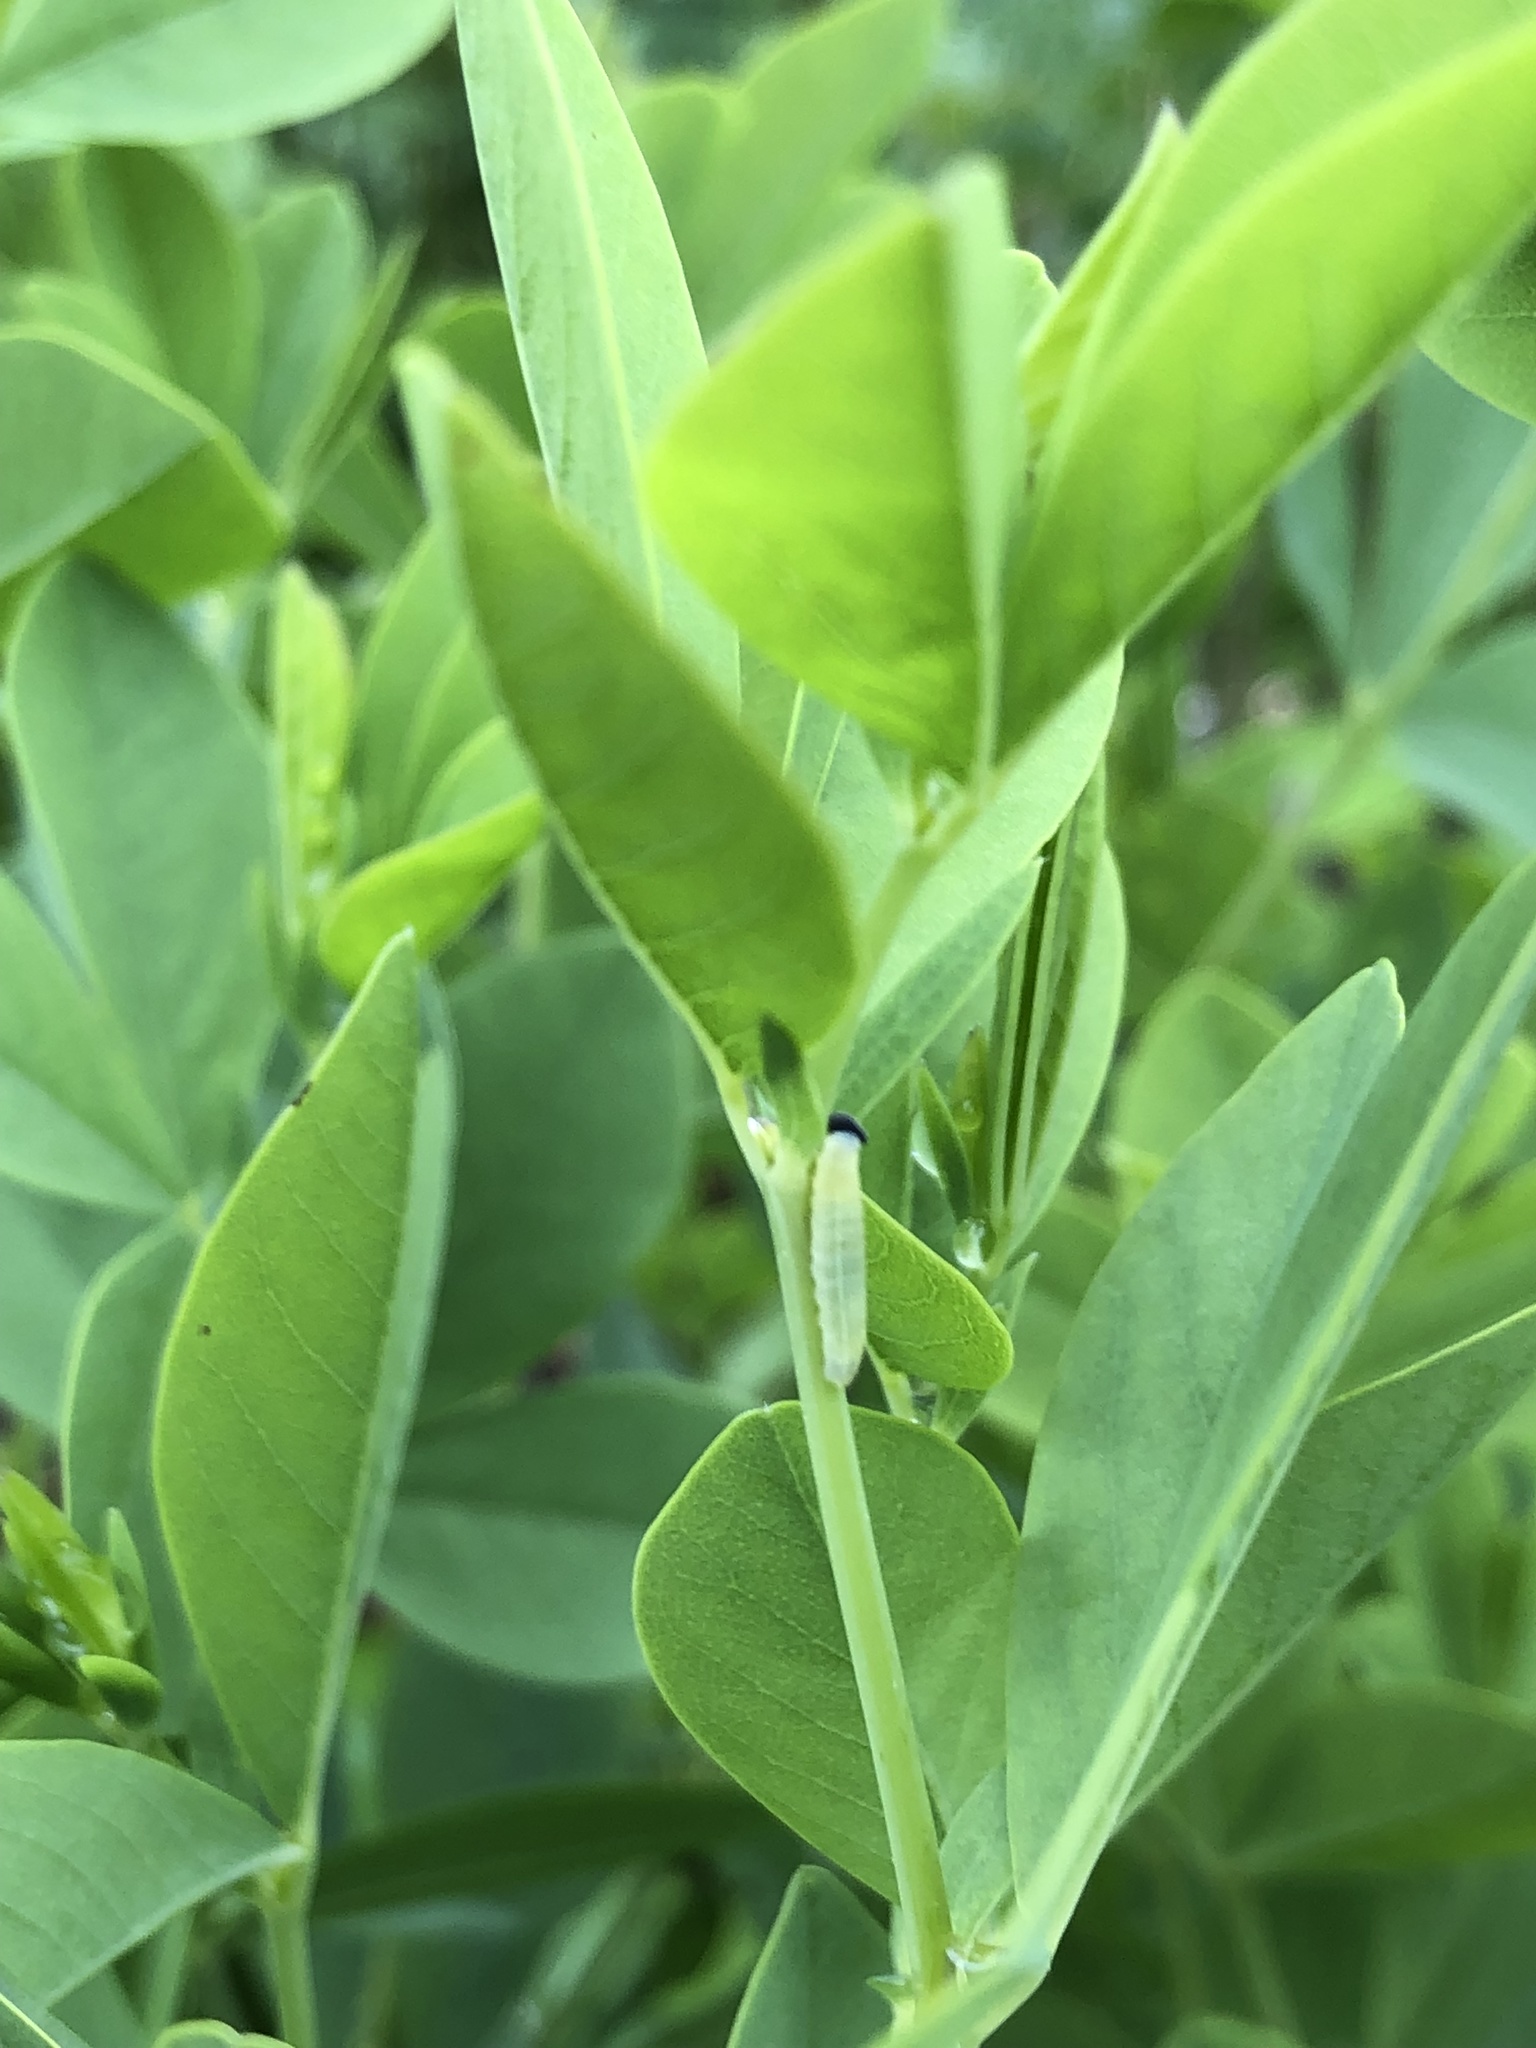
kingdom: Animalia
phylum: Arthropoda
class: Insecta
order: Lepidoptera
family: Hesperiidae
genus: Erynnis
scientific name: Erynnis baptisiae
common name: Wild indigo duskywing
